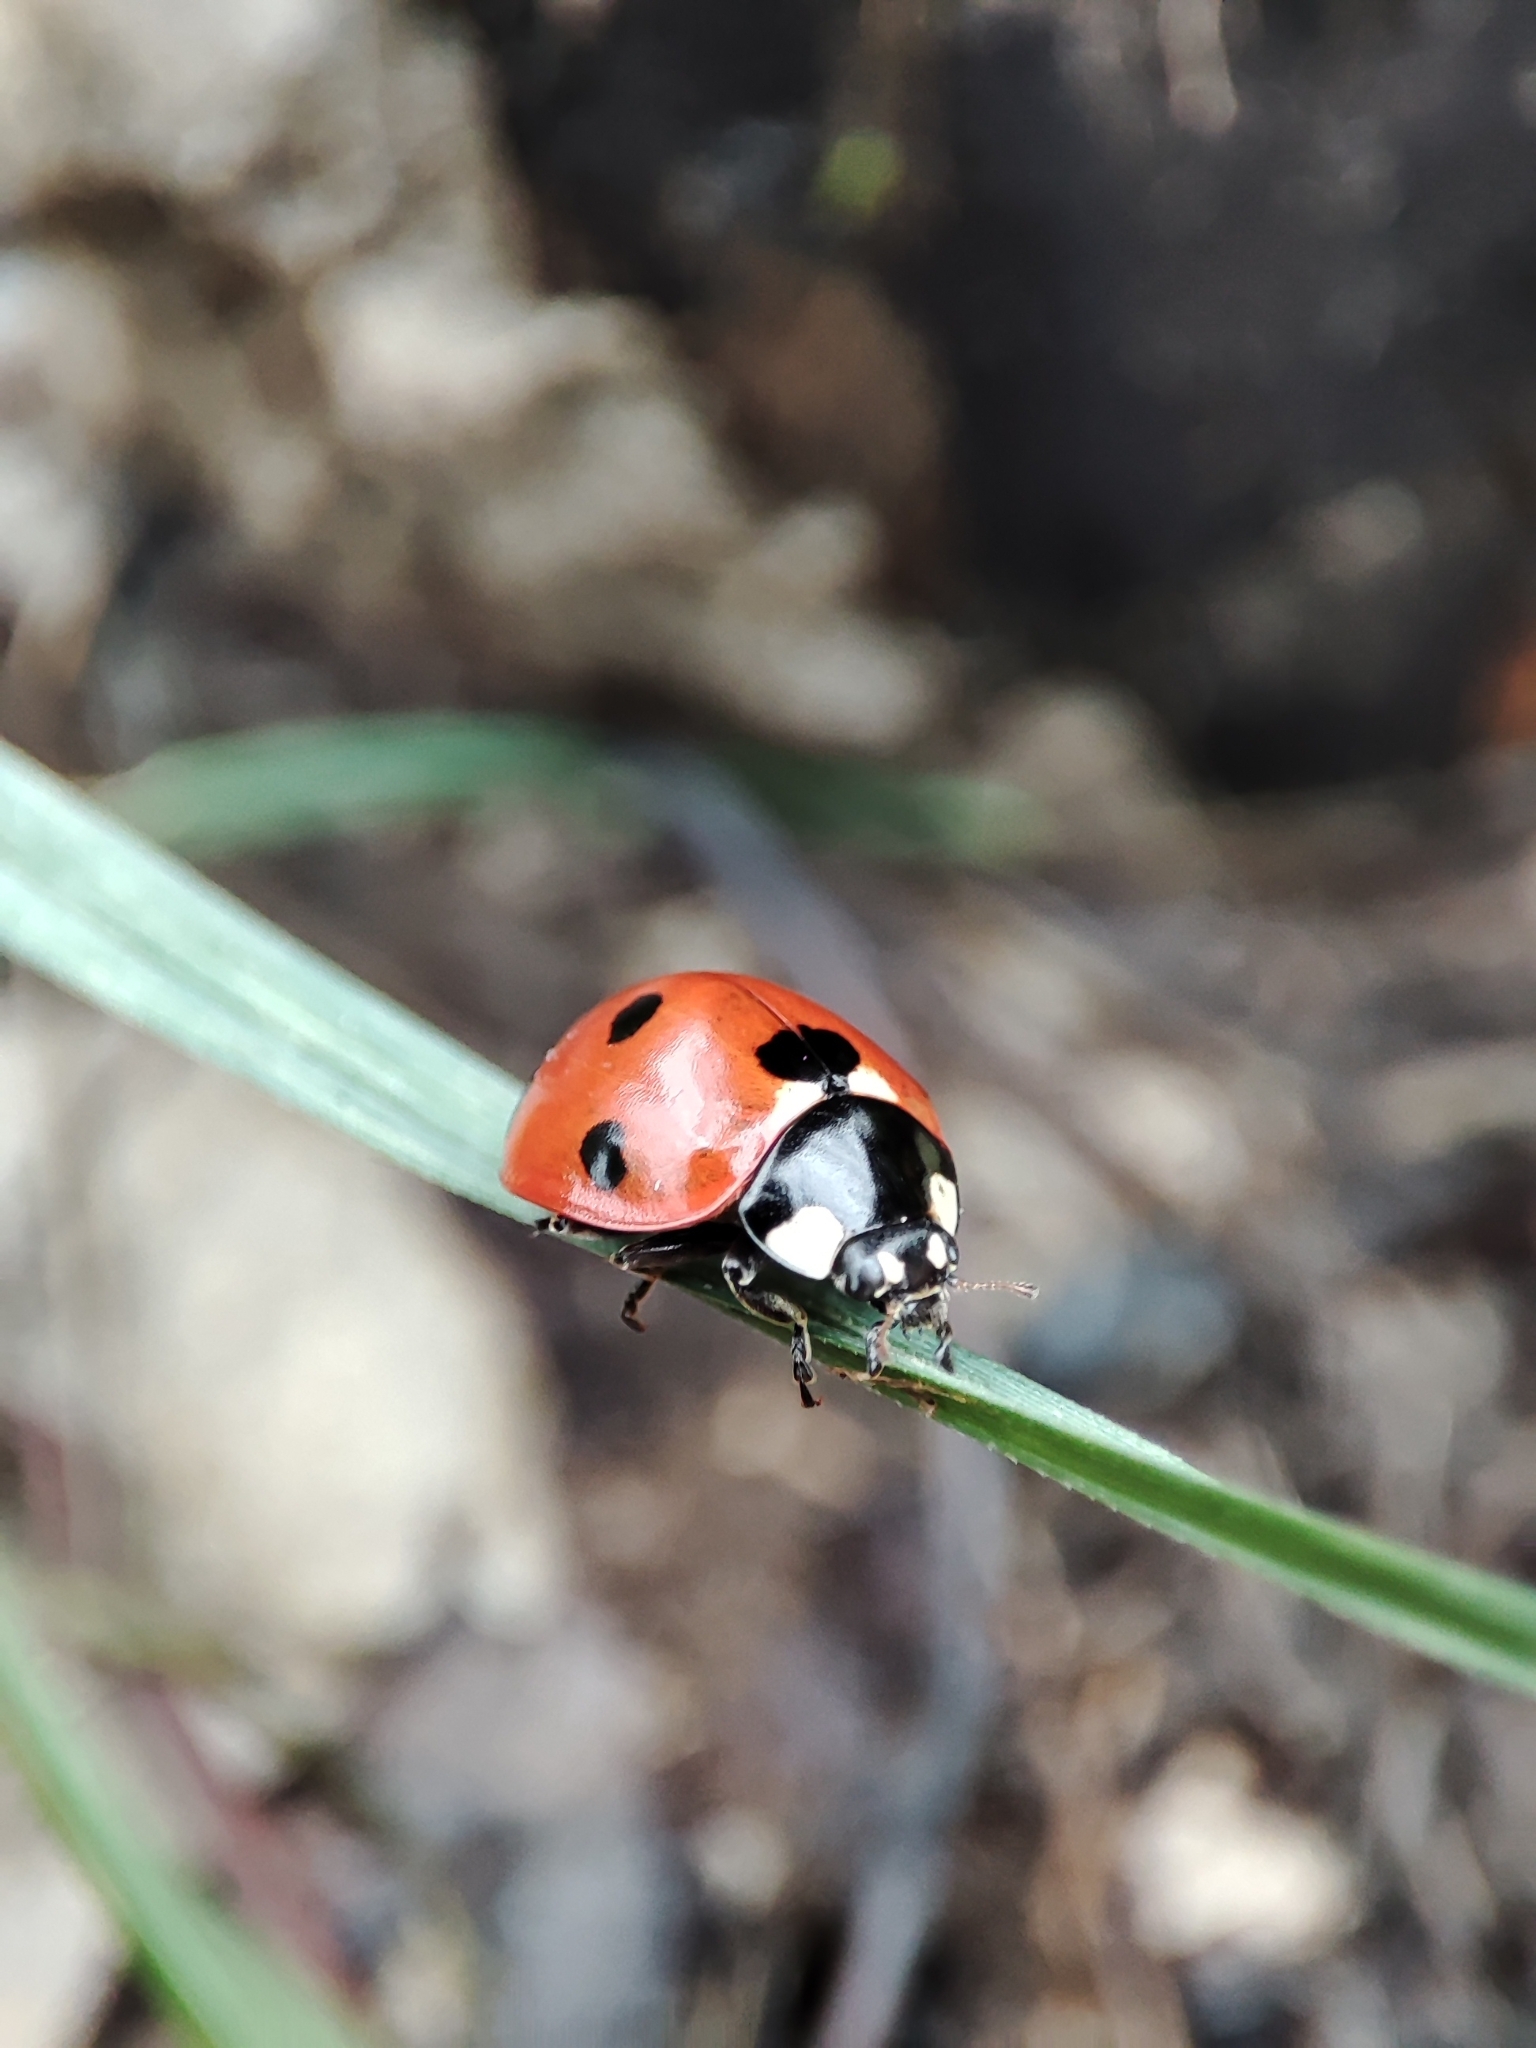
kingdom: Animalia
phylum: Arthropoda
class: Insecta
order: Coleoptera
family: Coccinellidae
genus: Coccinella
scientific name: Coccinella septempunctata
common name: Sevenspotted lady beetle
